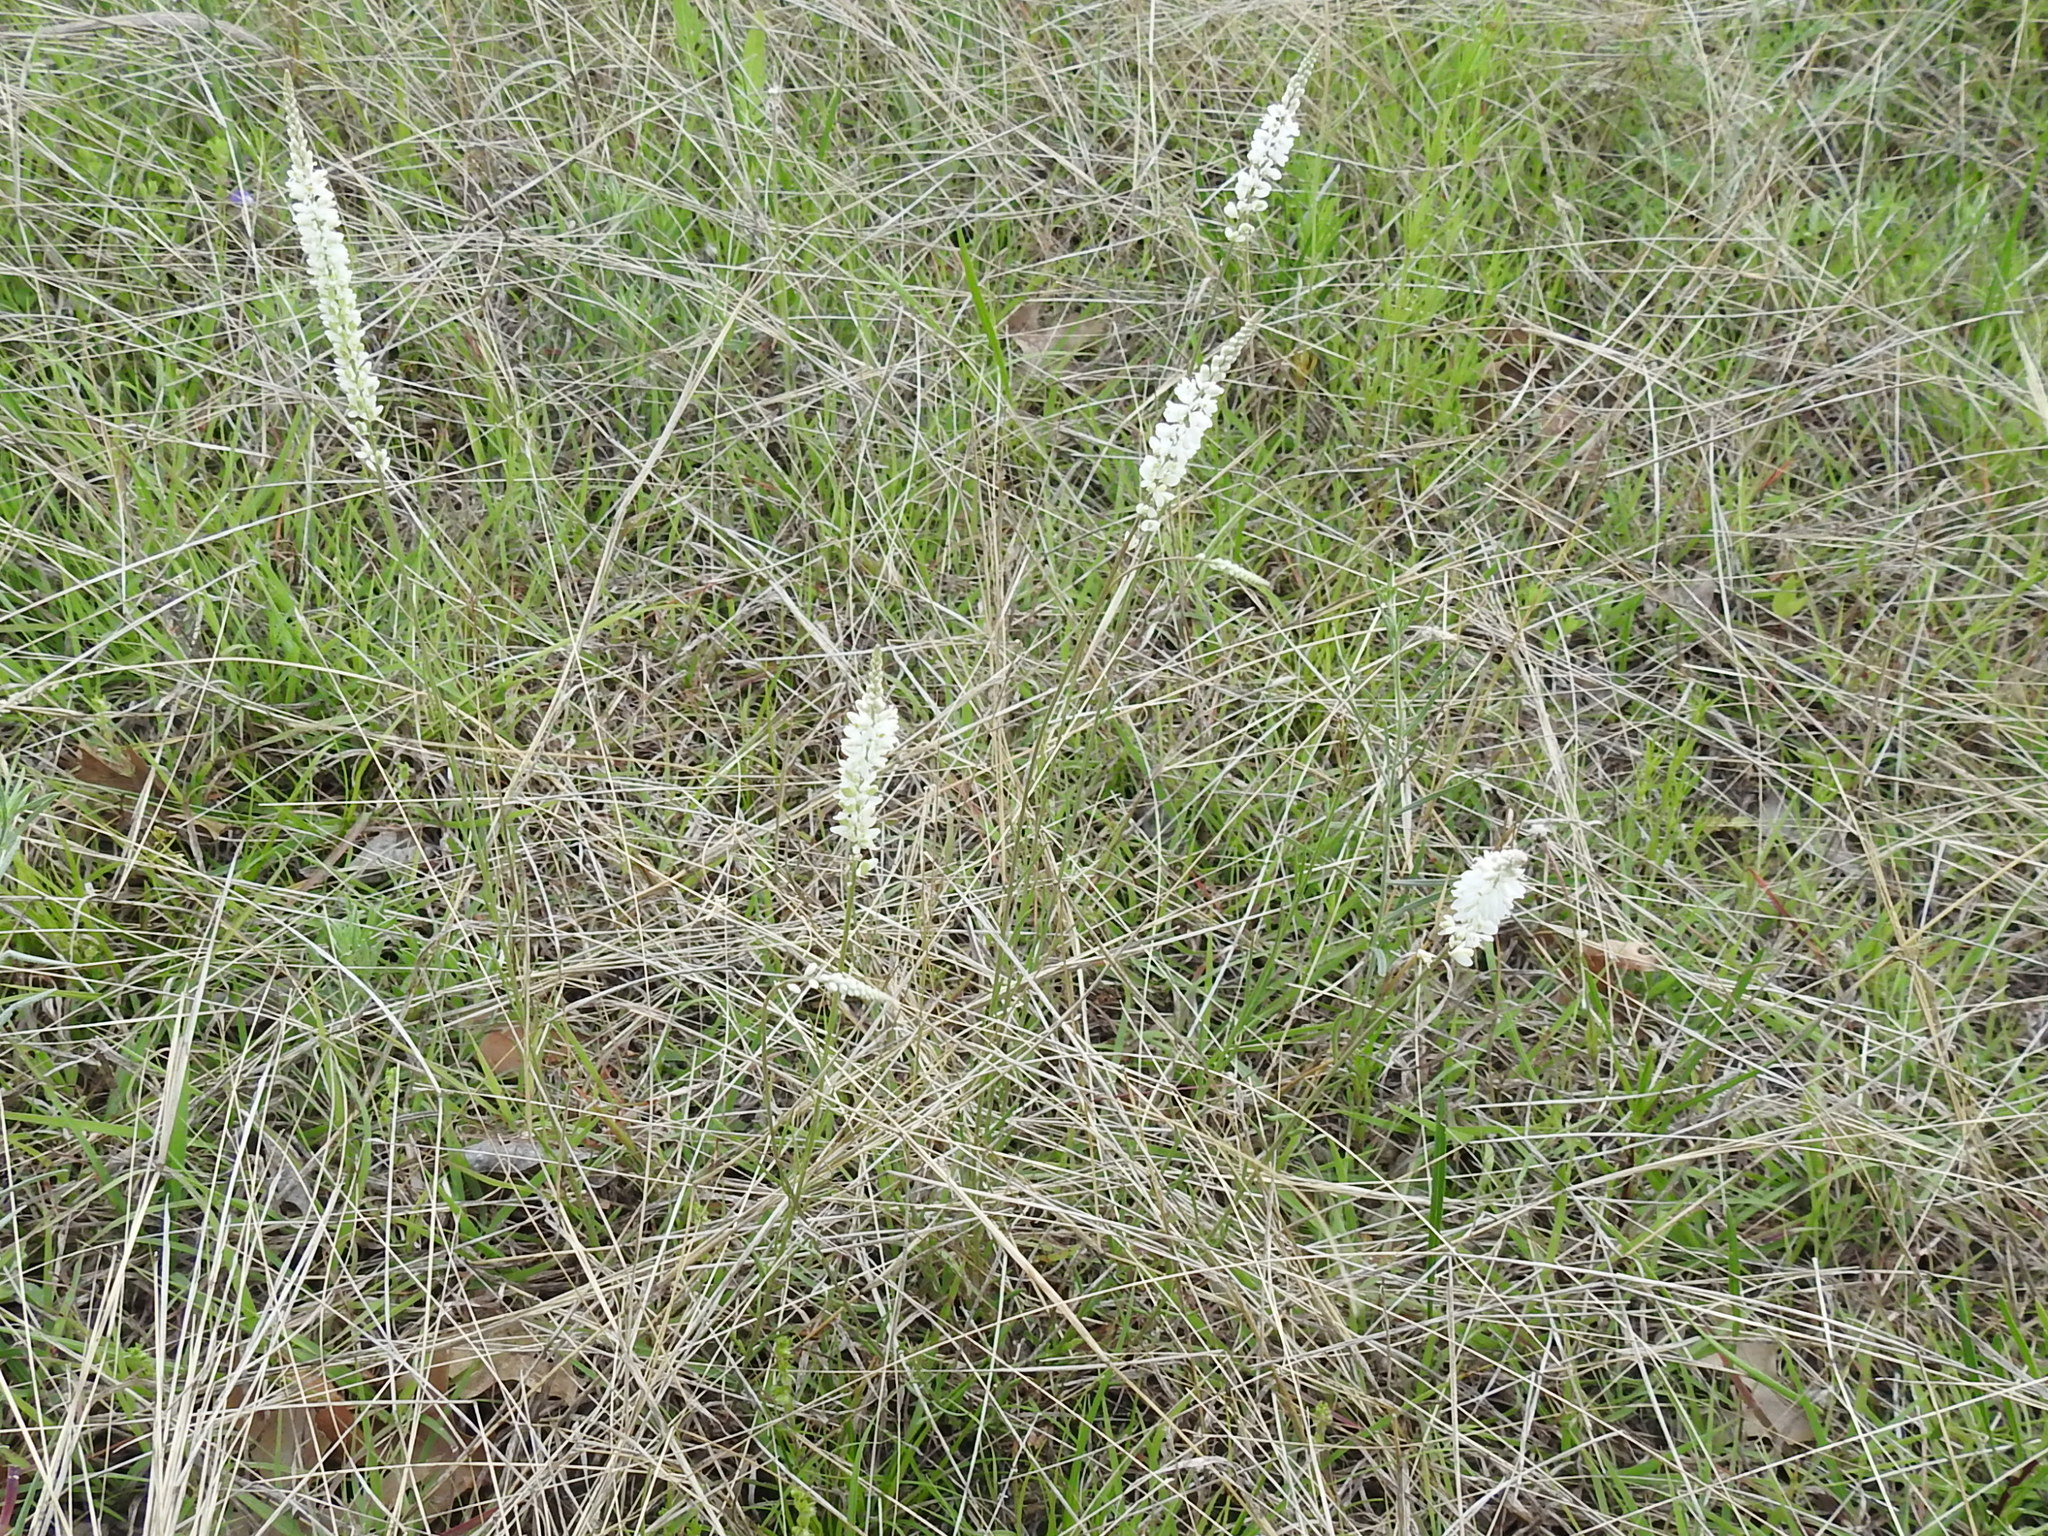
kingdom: Plantae
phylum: Tracheophyta
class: Magnoliopsida
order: Fabales
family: Polygalaceae
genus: Polygala
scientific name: Polygala alba
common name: White milkwort
